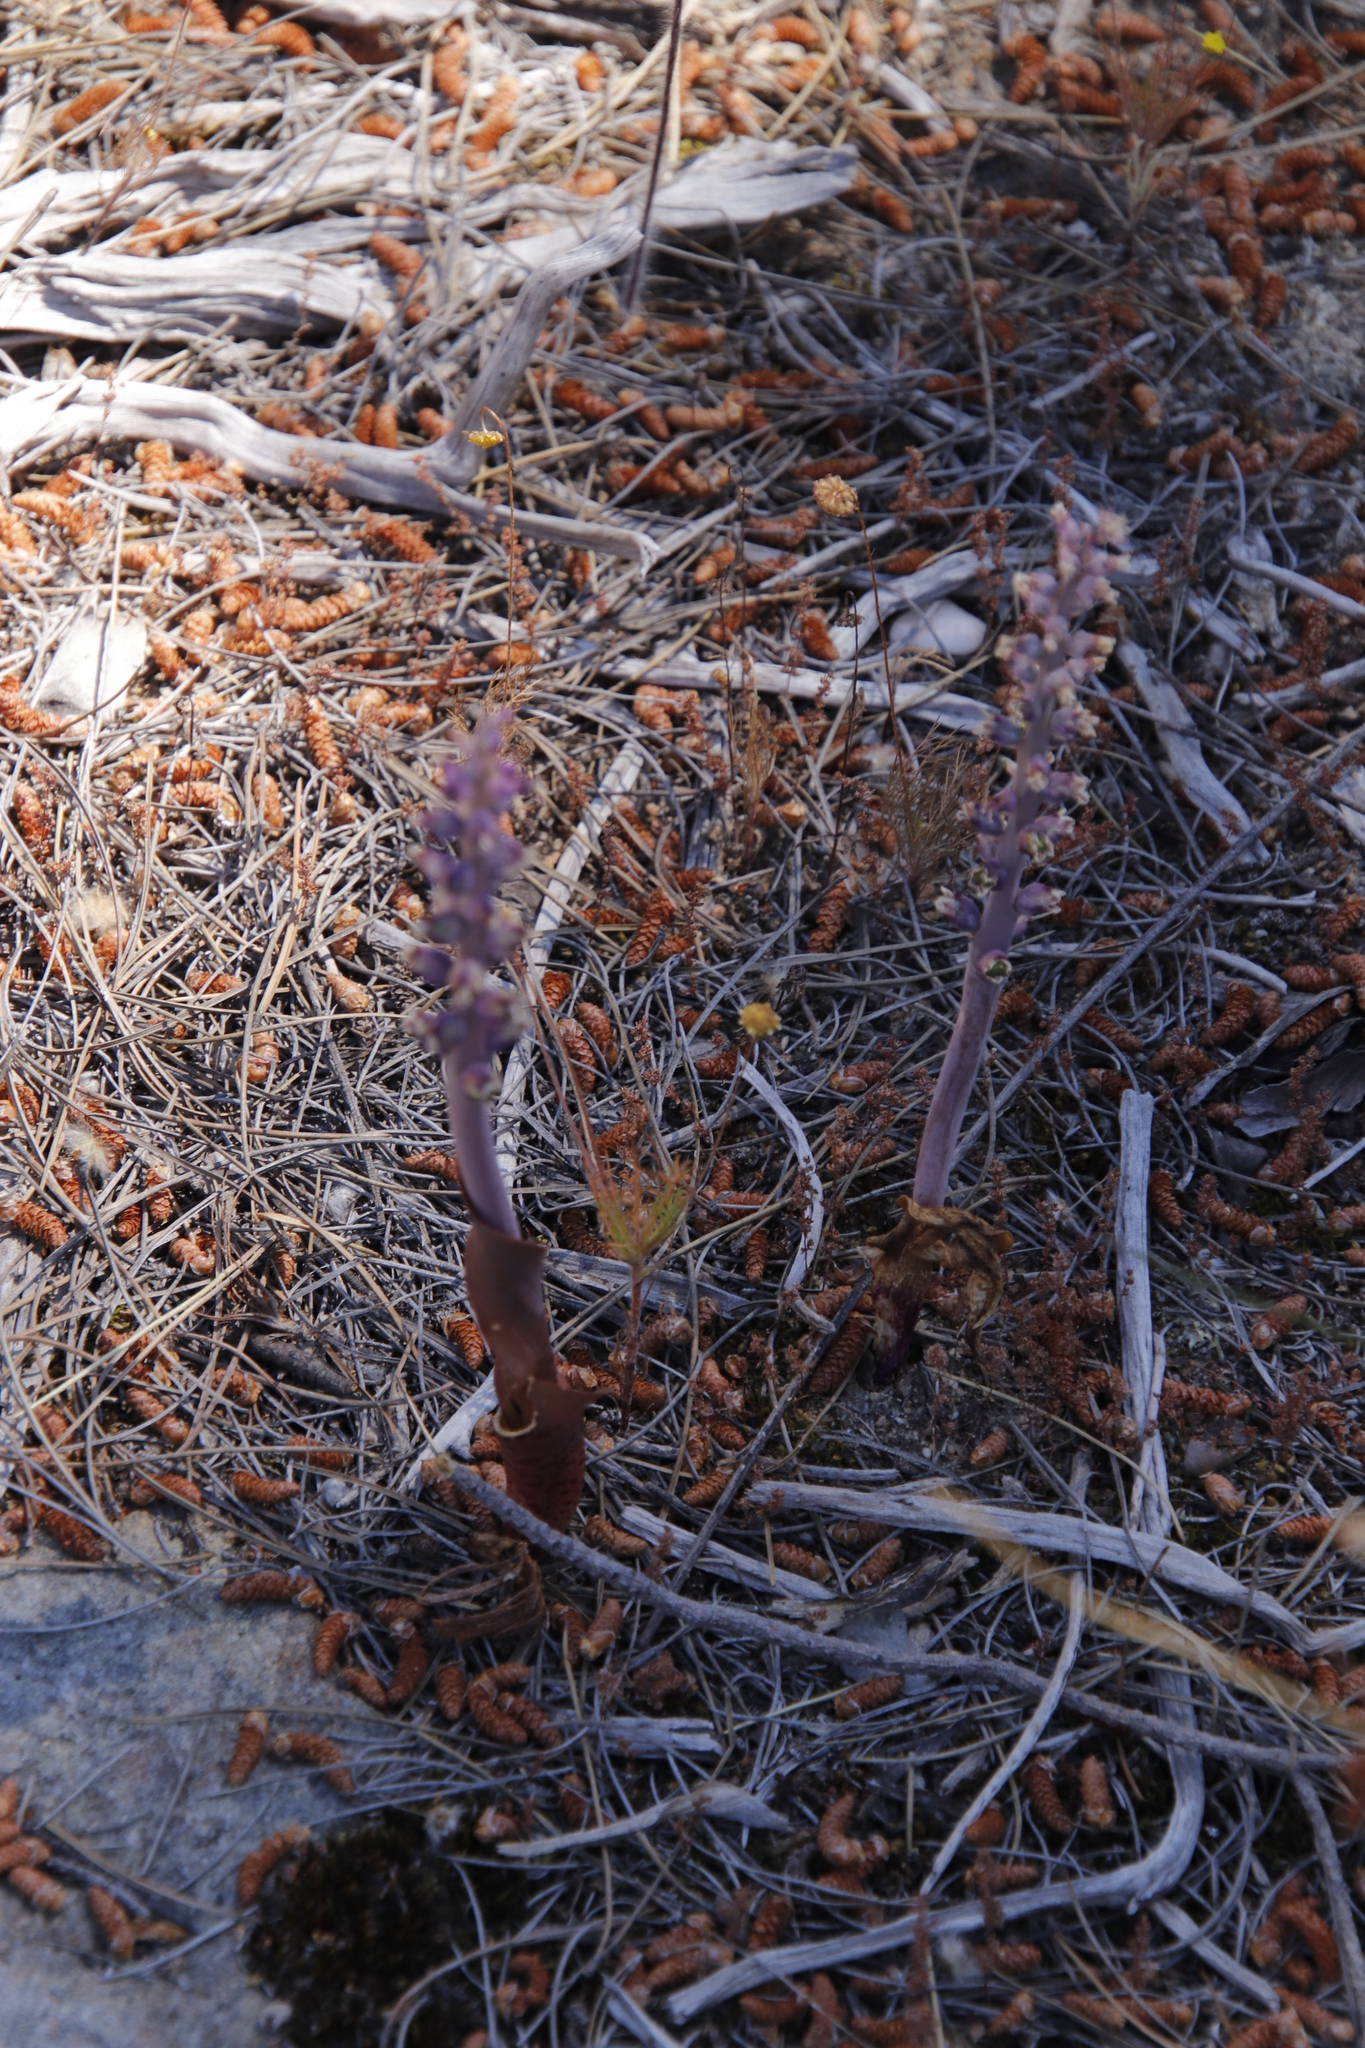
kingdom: Plantae
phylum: Tracheophyta
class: Liliopsida
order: Asparagales
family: Asparagaceae
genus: Lachenalia
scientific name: Lachenalia elegans
